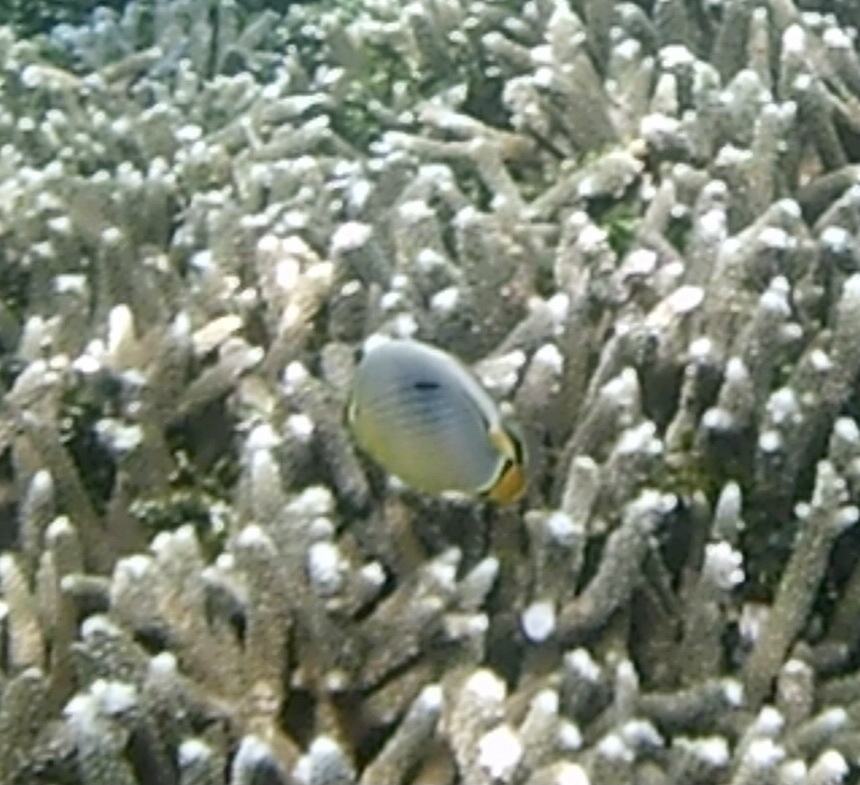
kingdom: Animalia
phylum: Chordata
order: Perciformes
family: Chaetodontidae
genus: Chaetodon
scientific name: Chaetodon trifasciatus
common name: Redfin butterflyfish
